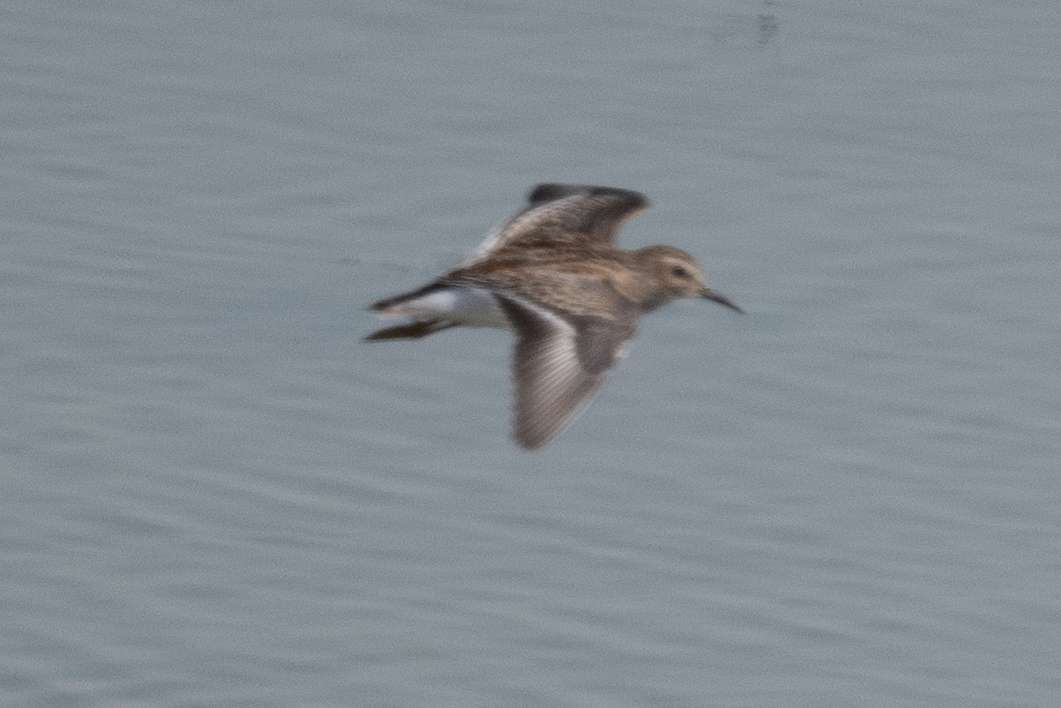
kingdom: Animalia
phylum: Chordata
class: Aves
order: Charadriiformes
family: Scolopacidae
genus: Calidris
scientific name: Calidris minutilla
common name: Least sandpiper
